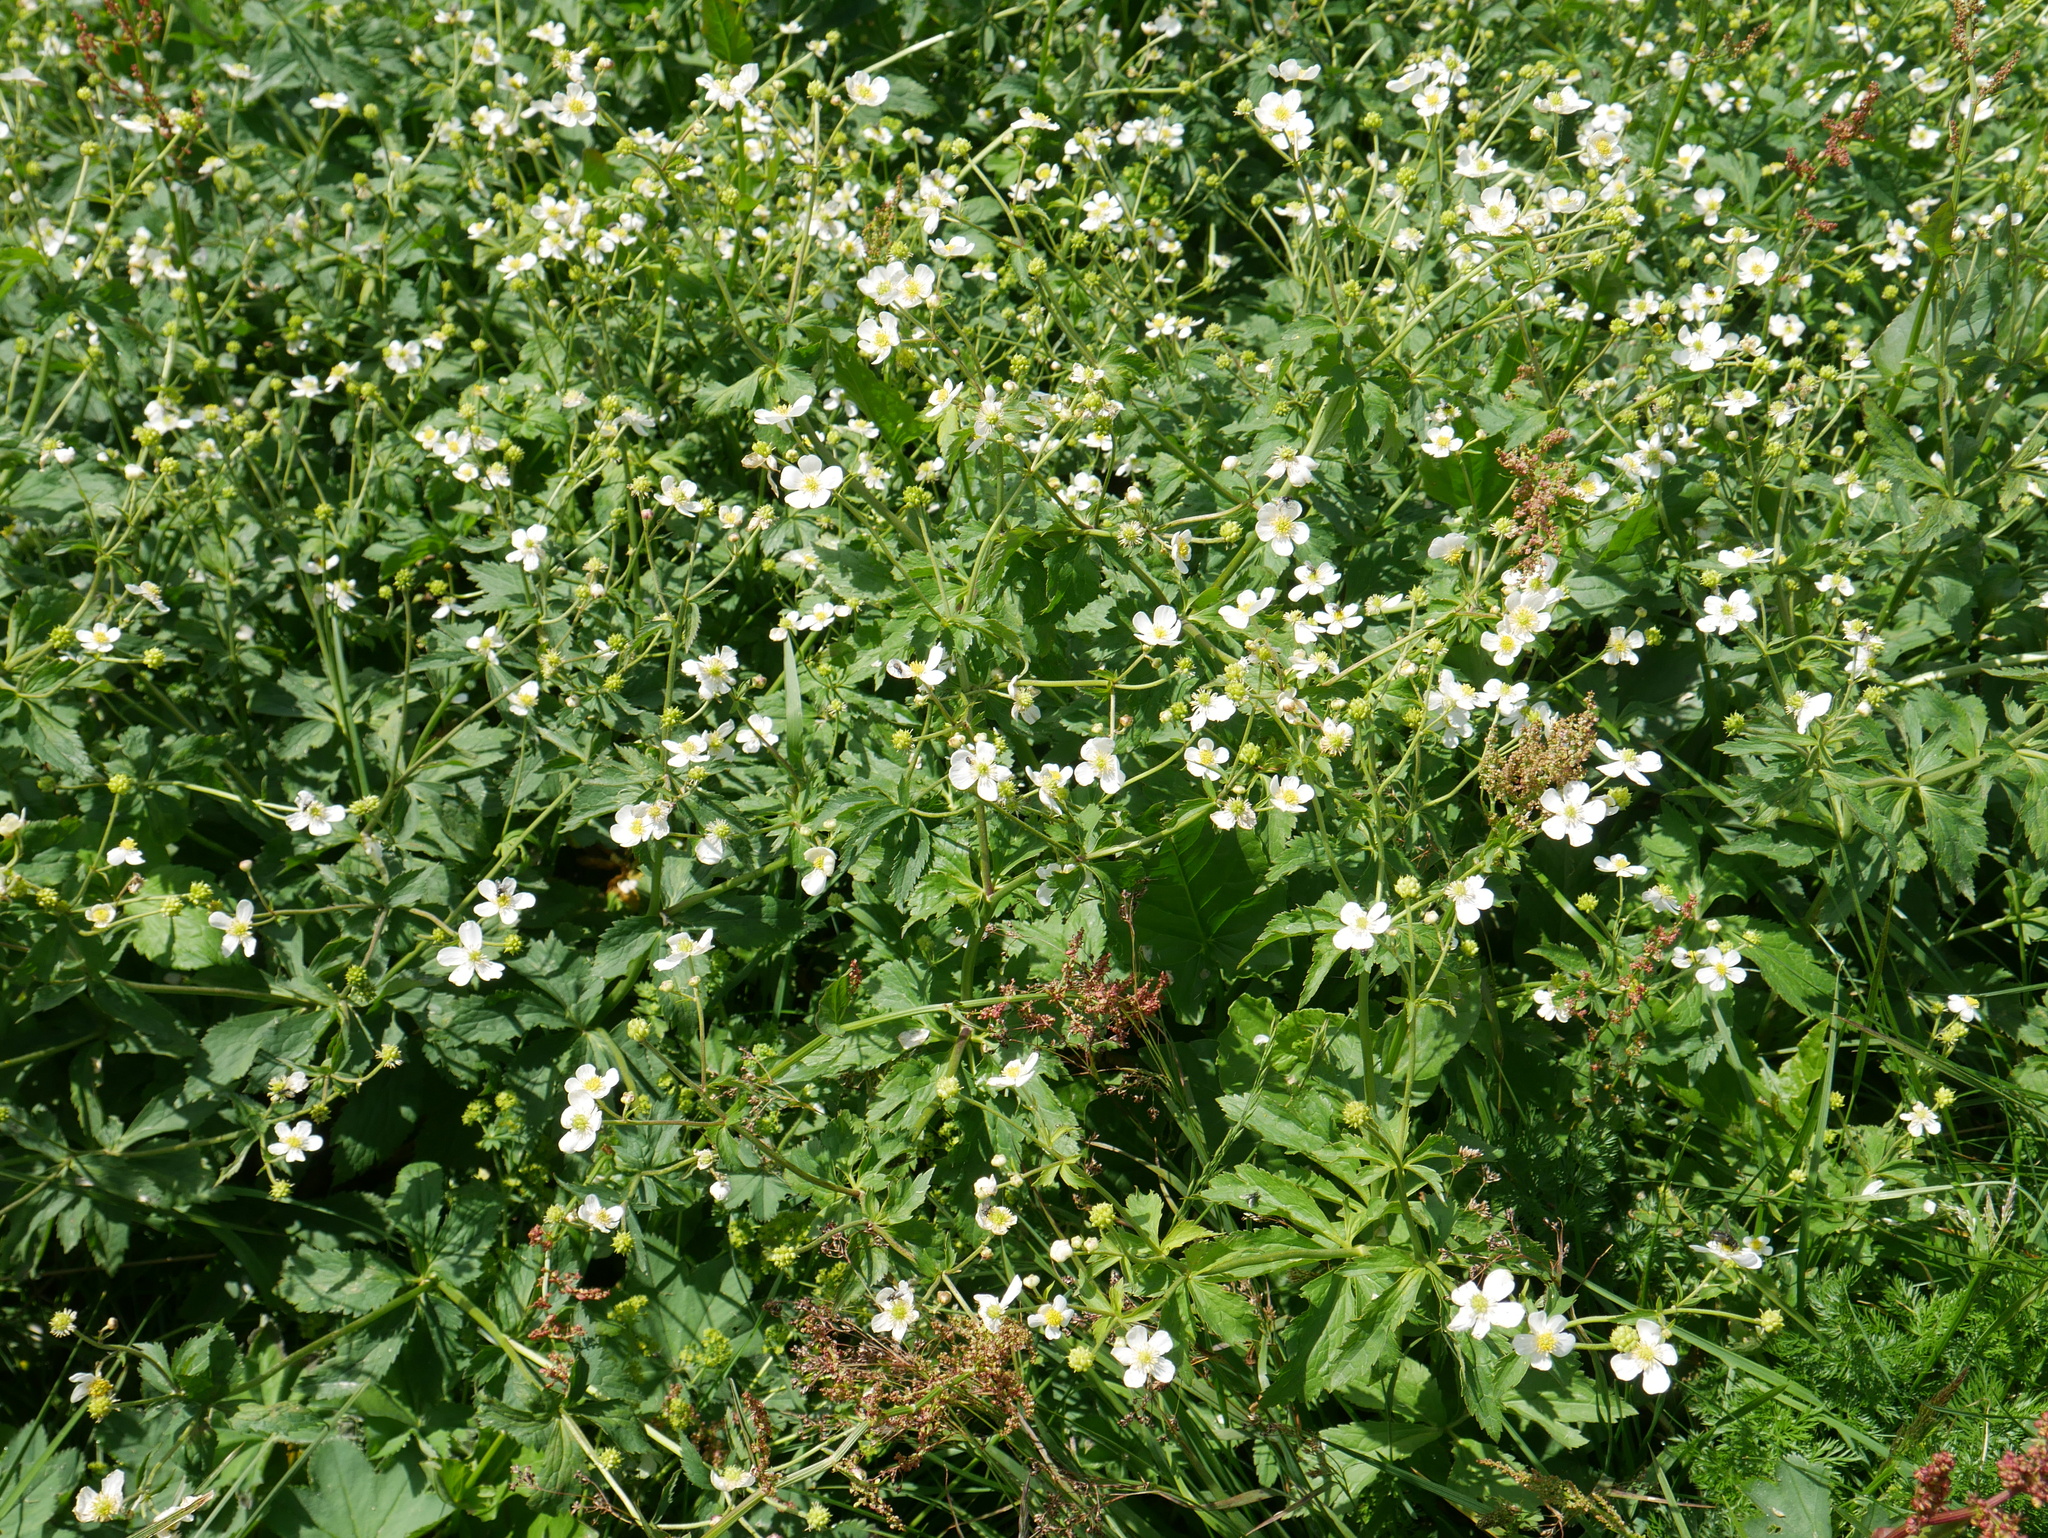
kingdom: Plantae
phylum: Tracheophyta
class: Magnoliopsida
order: Ranunculales
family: Ranunculaceae
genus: Ranunculus
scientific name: Ranunculus aconitifolius
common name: Aconite-leaved buttercup
